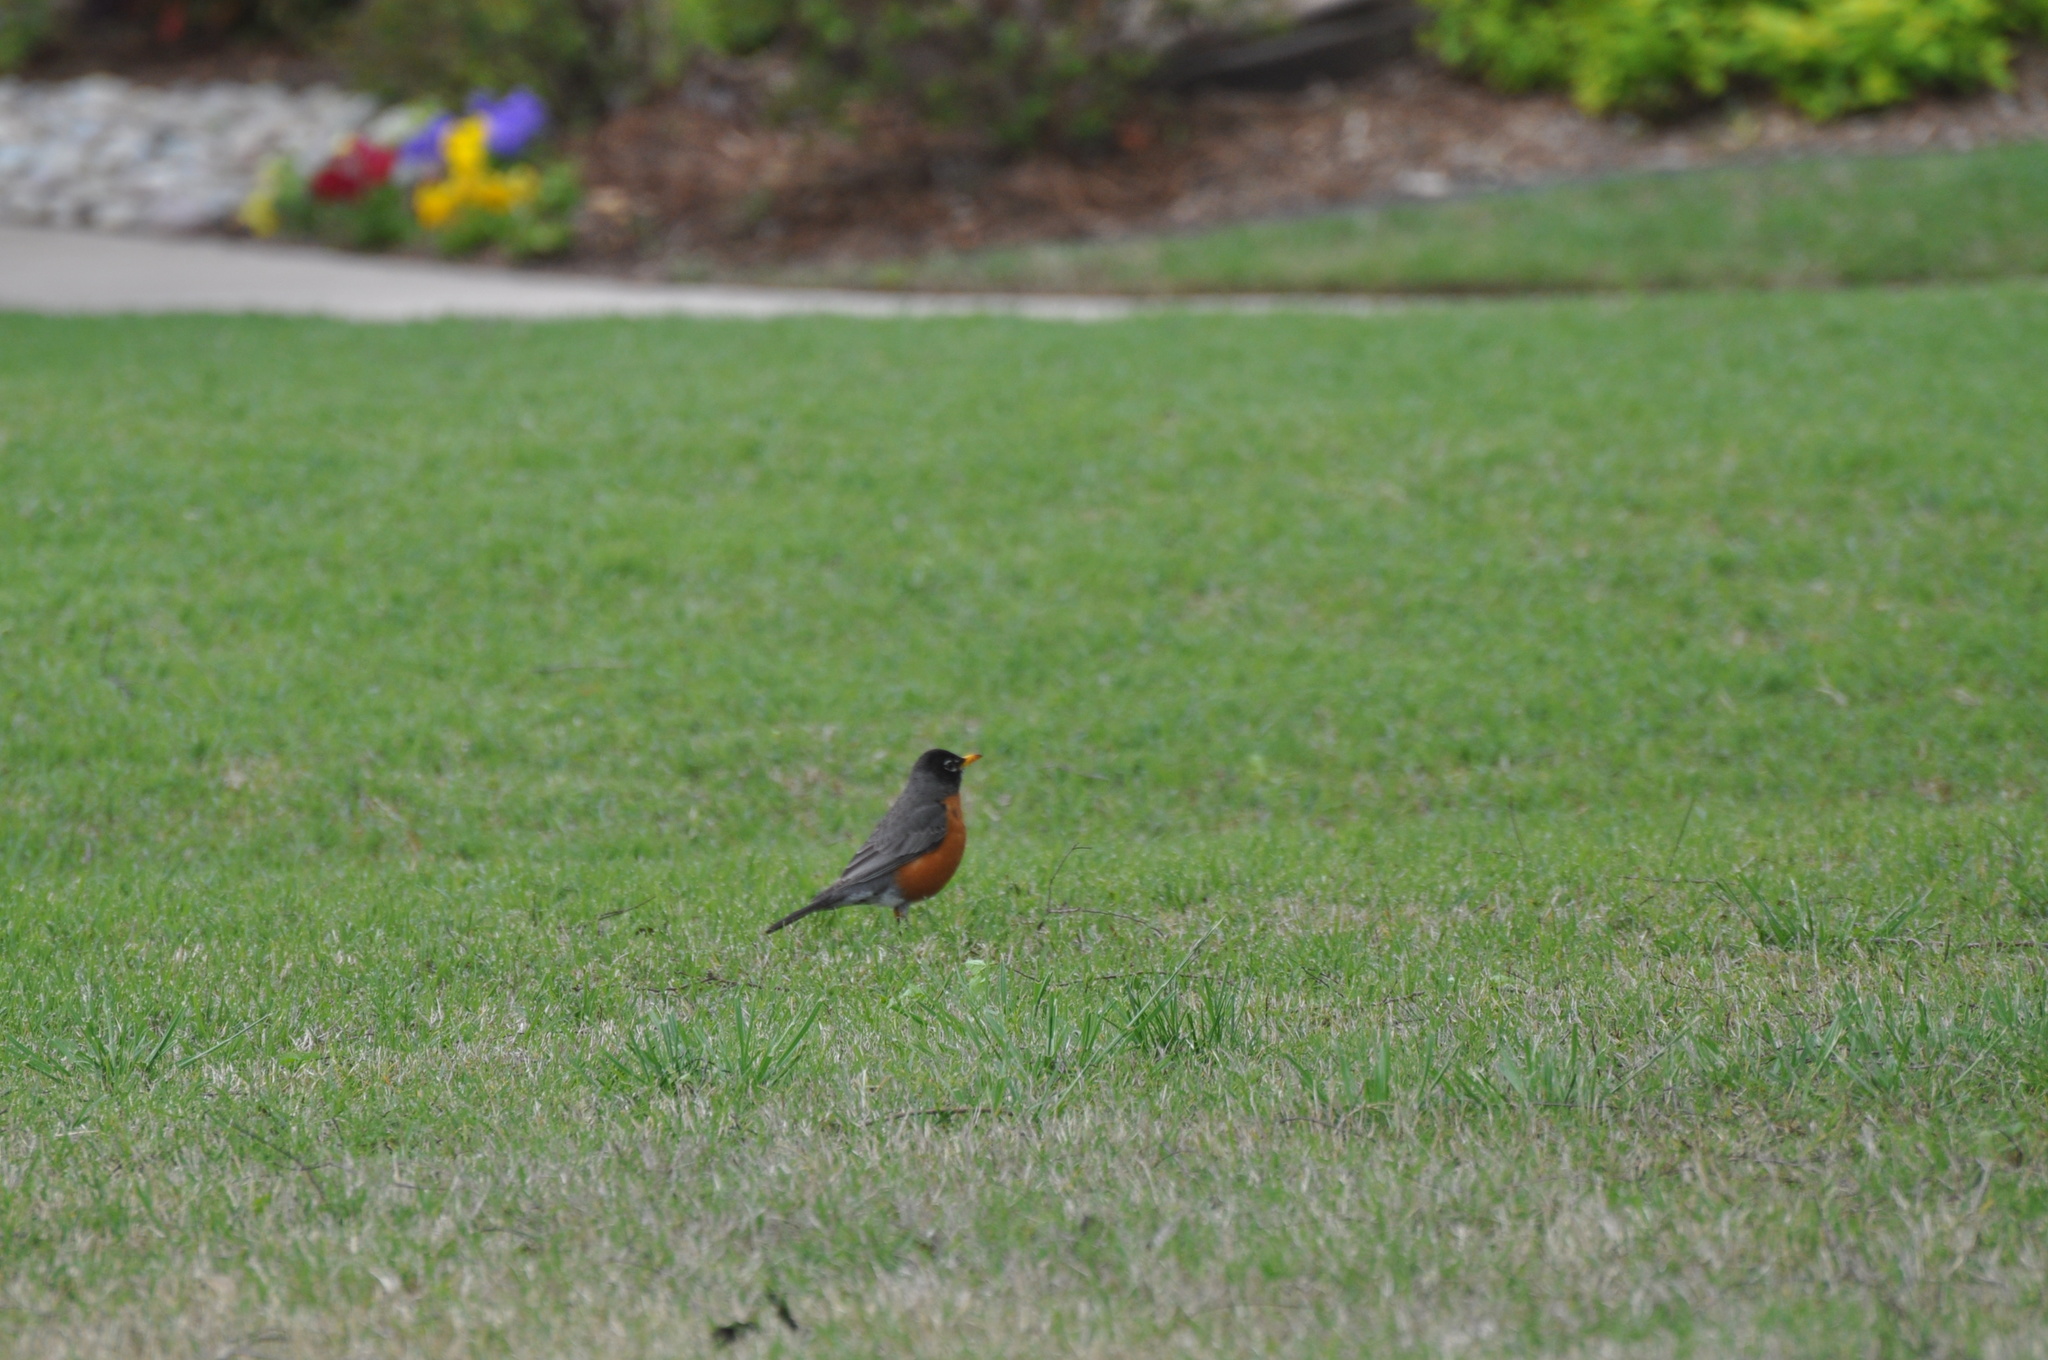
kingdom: Animalia
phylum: Chordata
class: Aves
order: Passeriformes
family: Turdidae
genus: Turdus
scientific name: Turdus migratorius
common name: American robin
